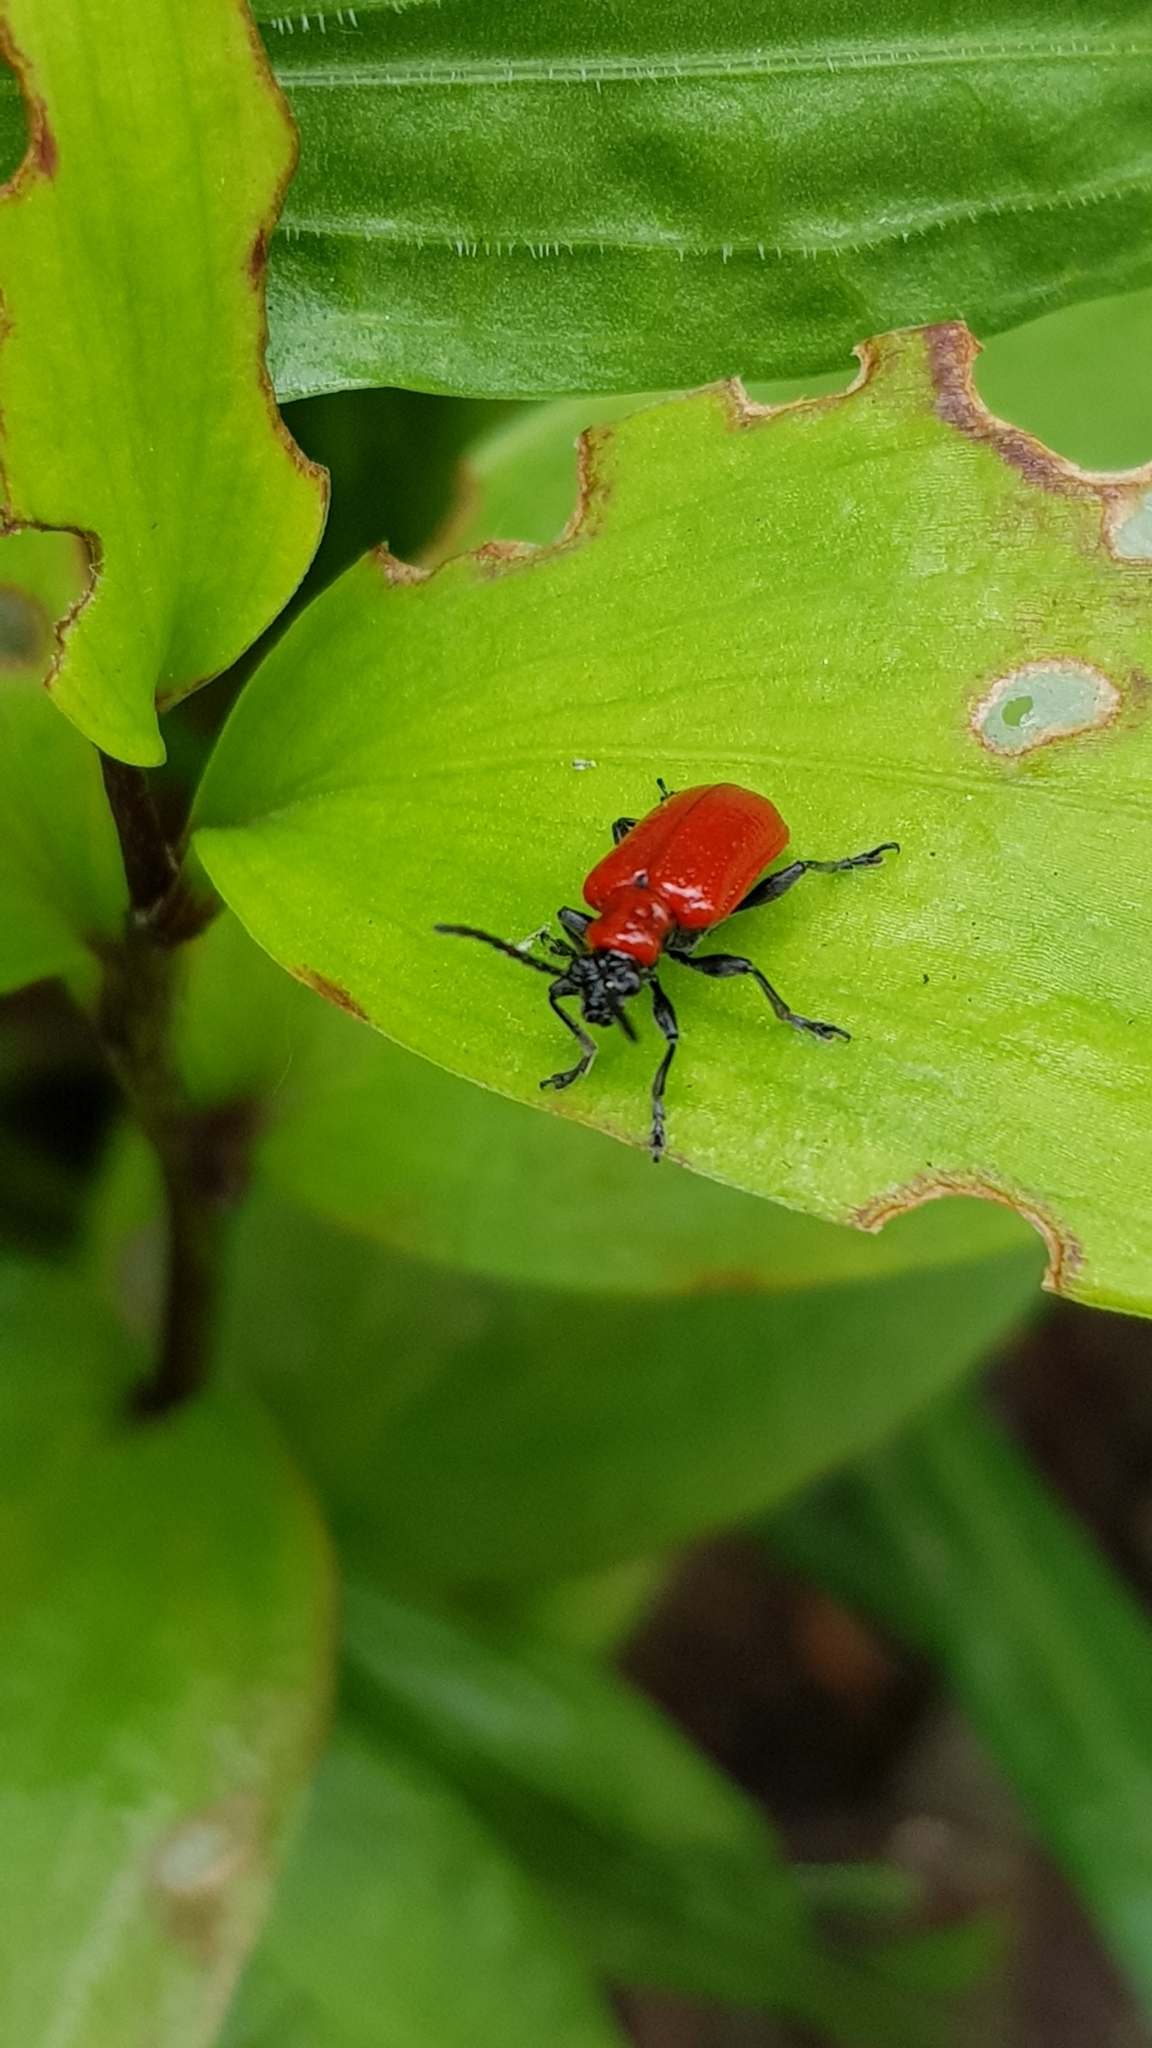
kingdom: Animalia
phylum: Arthropoda
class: Insecta
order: Coleoptera
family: Chrysomelidae
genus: Lilioceris
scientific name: Lilioceris lilii
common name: Lily beetle
